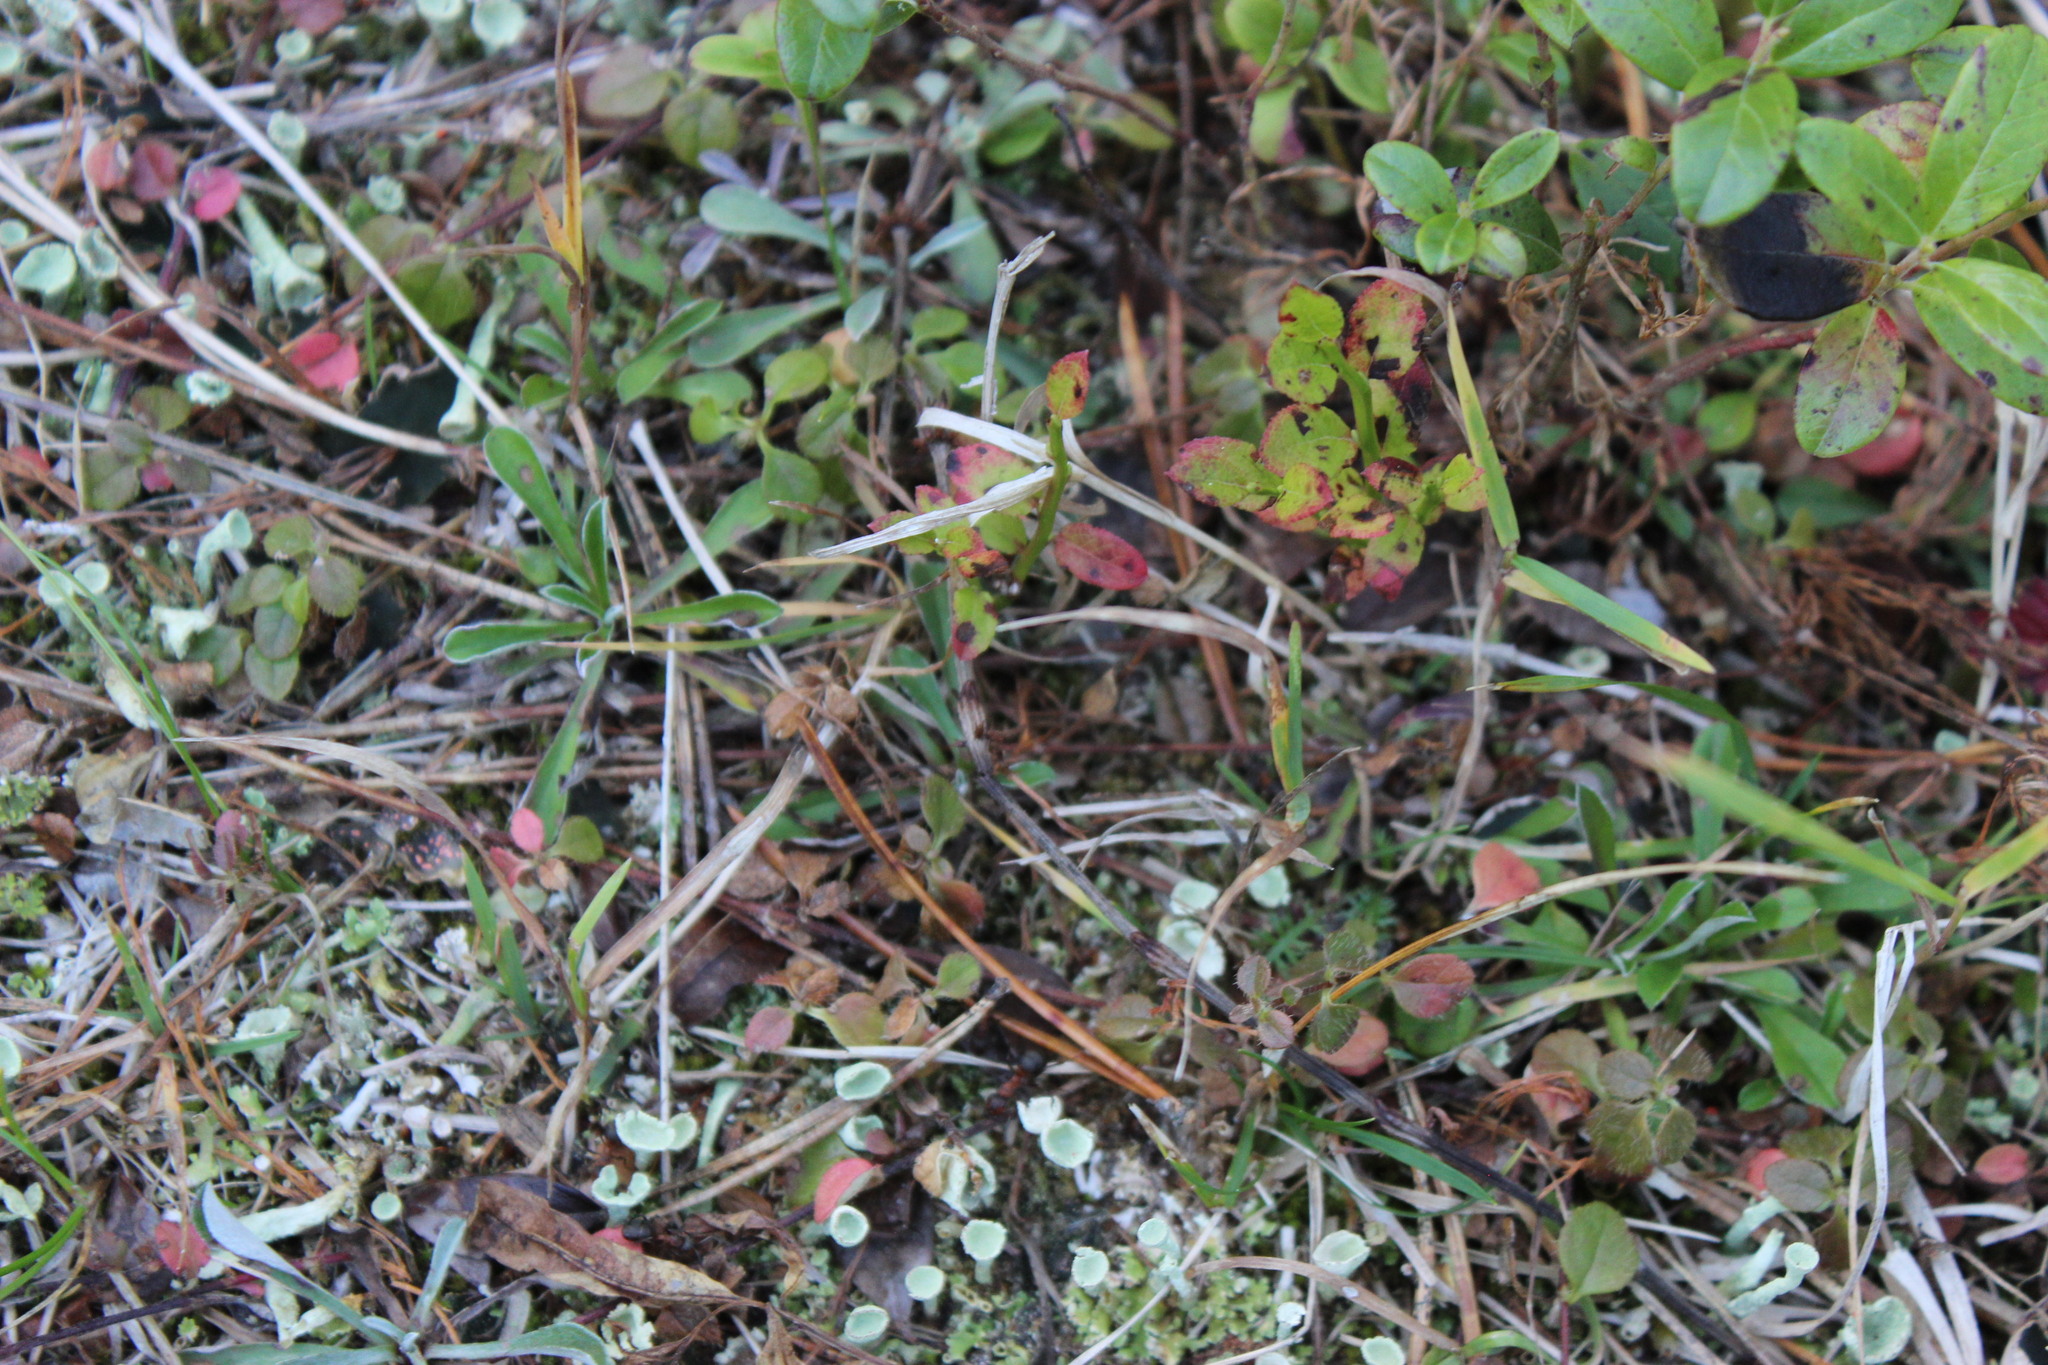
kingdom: Plantae
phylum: Tracheophyta
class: Magnoliopsida
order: Asterales
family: Asteraceae
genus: Antennaria
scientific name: Antennaria dioica
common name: Mountain everlasting
